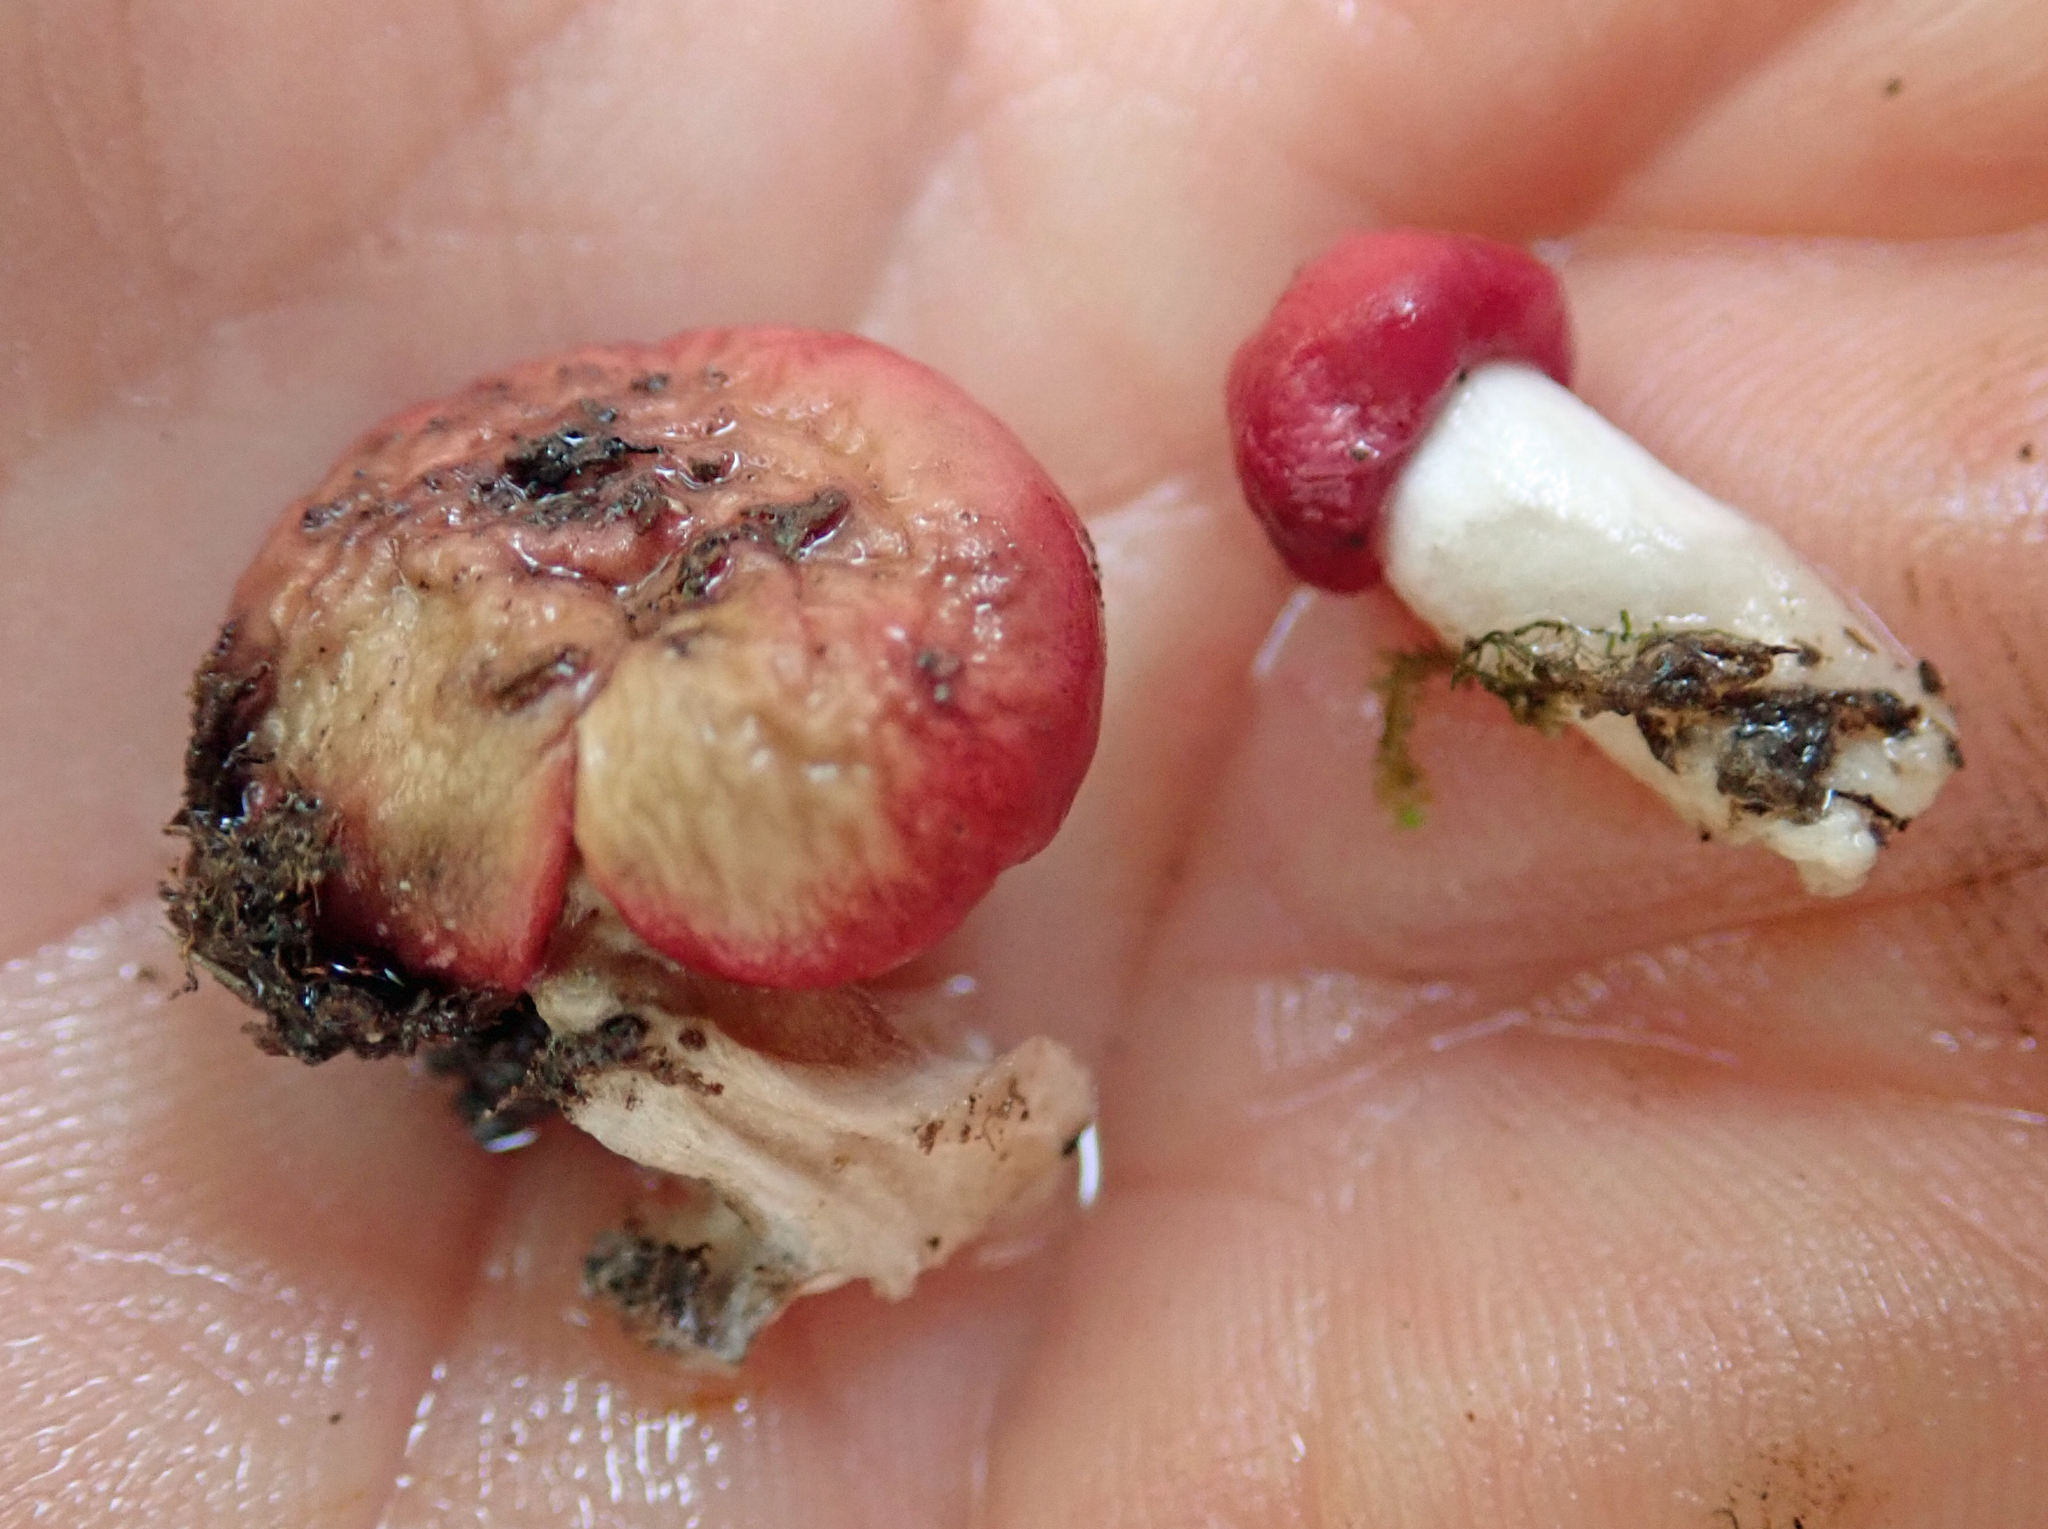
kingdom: Fungi
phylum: Basidiomycota
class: Agaricomycetes
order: Russulales
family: Russulaceae
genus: Russula
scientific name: Russula kermesina
